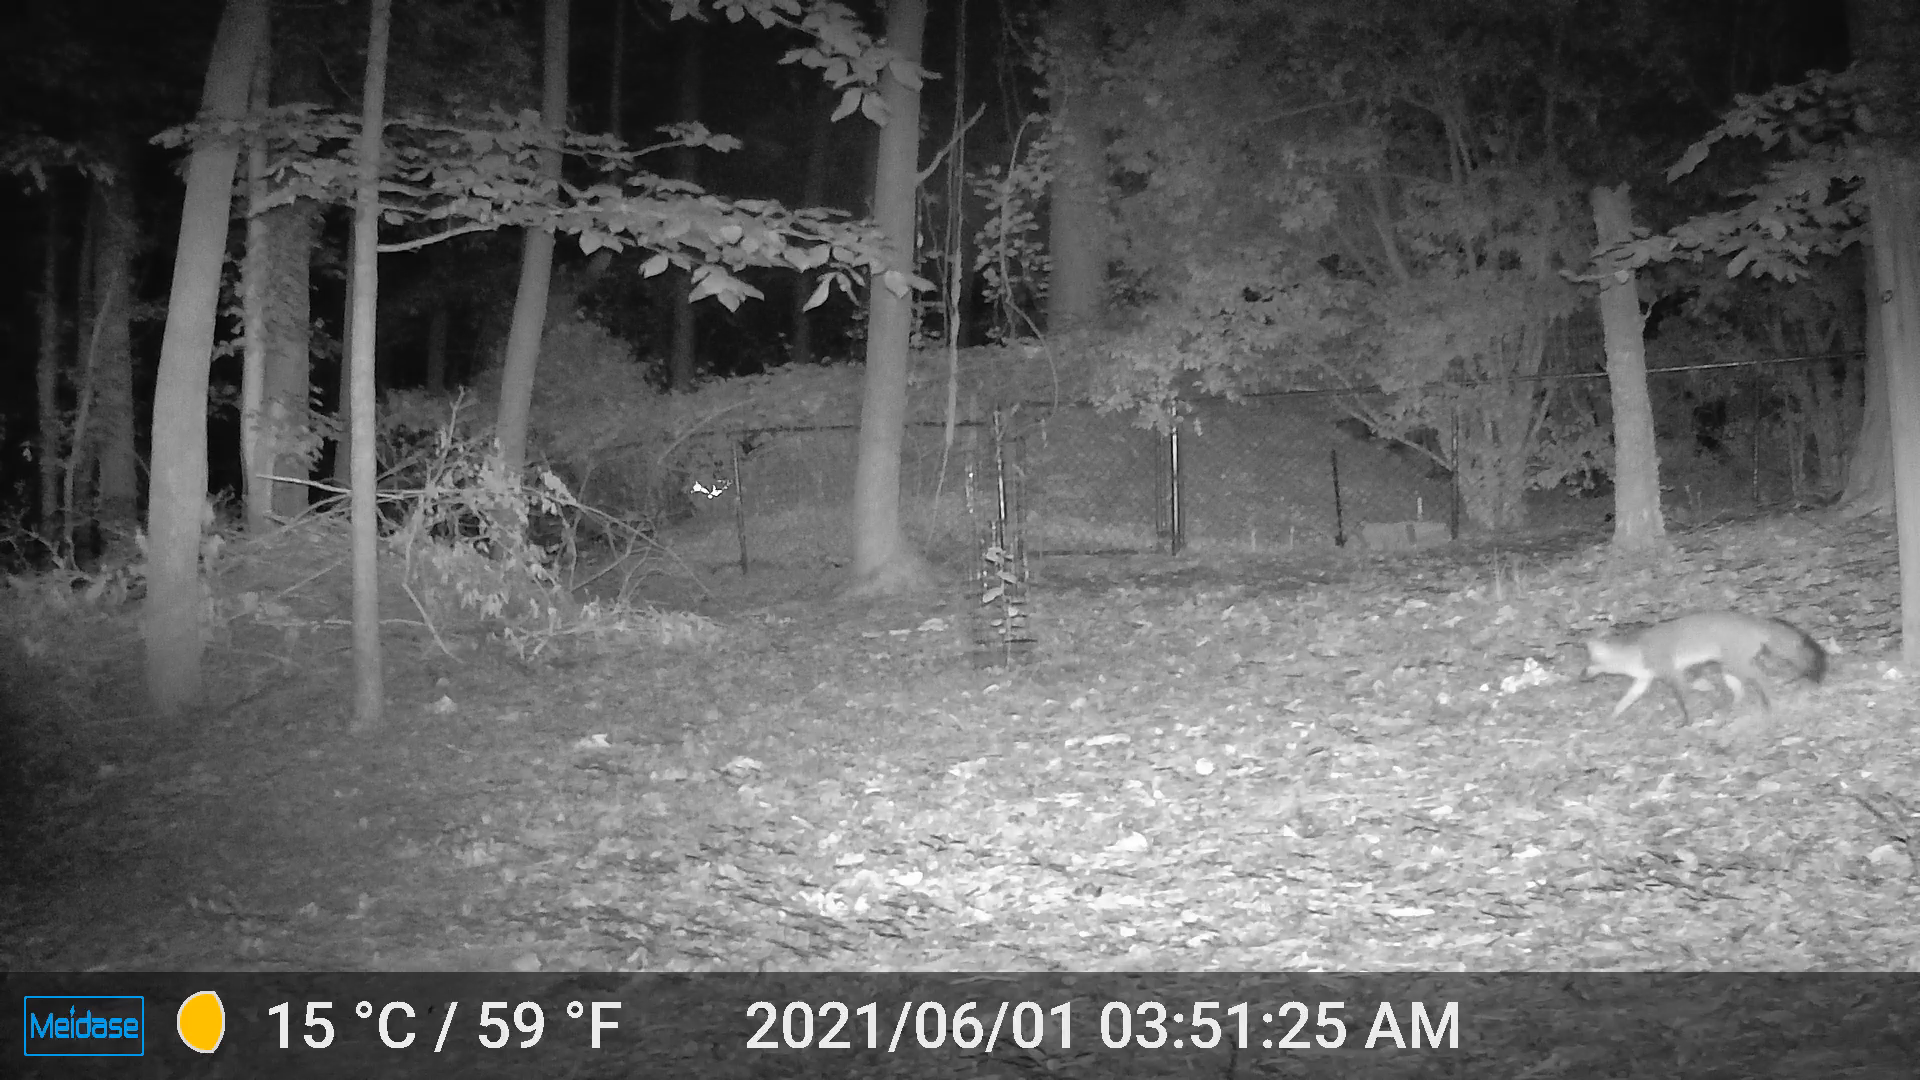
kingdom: Animalia
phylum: Chordata
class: Mammalia
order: Carnivora
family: Canidae
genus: Urocyon
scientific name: Urocyon cinereoargenteus
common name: Gray fox
